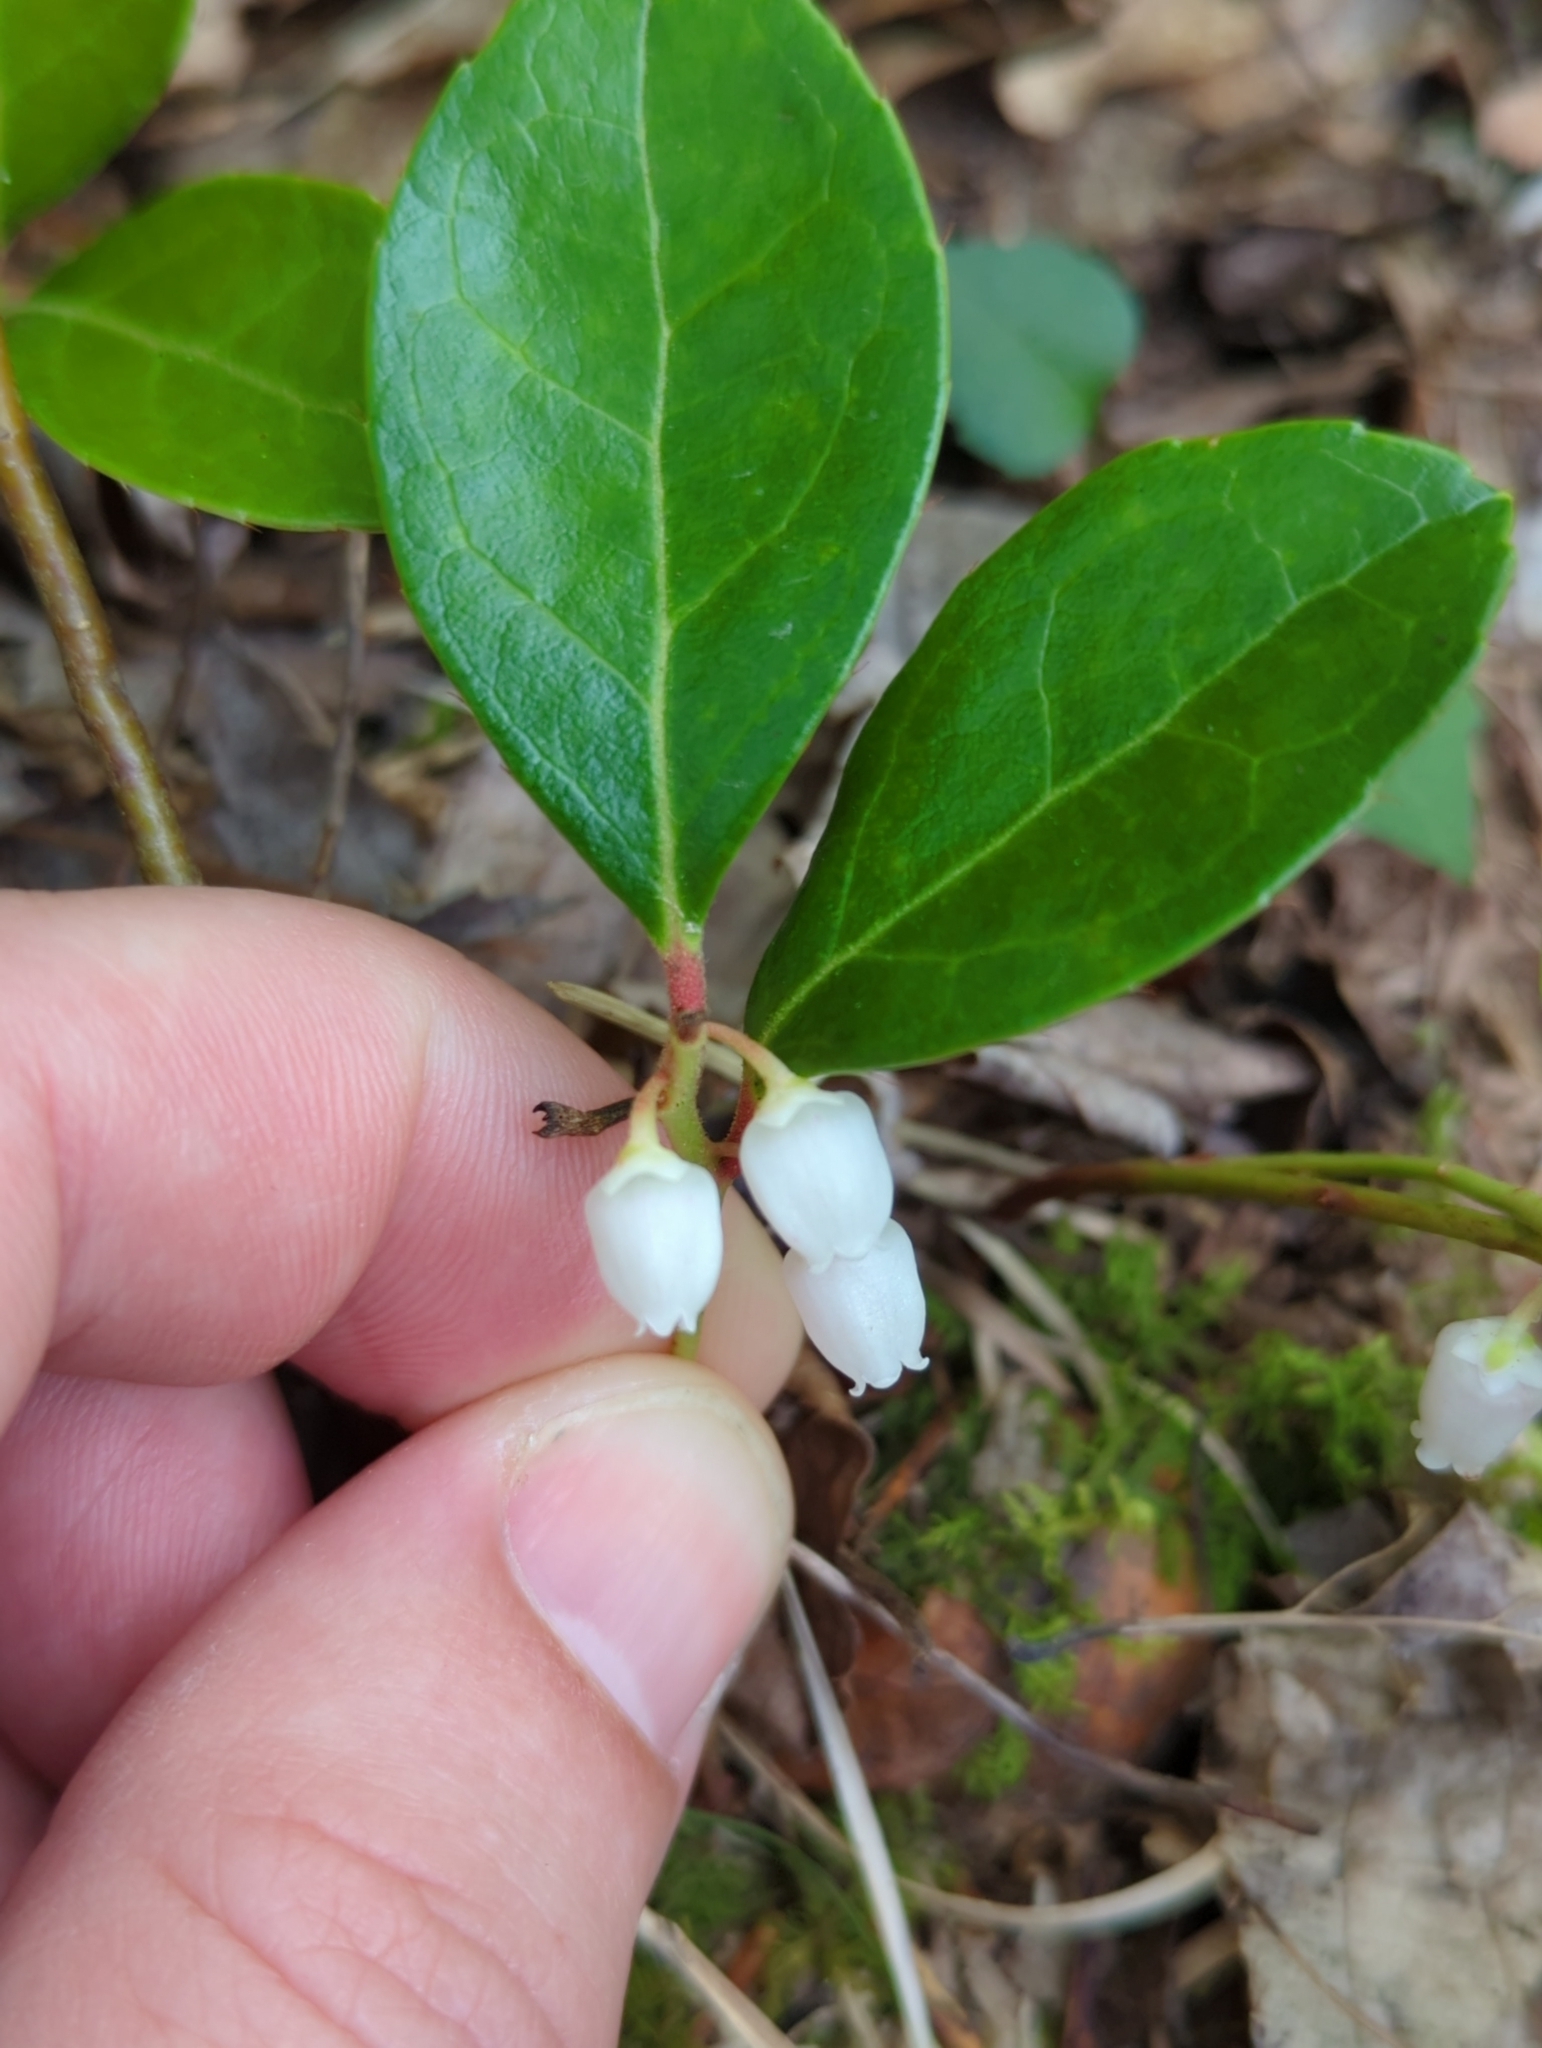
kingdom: Plantae
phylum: Tracheophyta
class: Magnoliopsida
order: Ericales
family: Ericaceae
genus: Gaultheria
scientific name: Gaultheria procumbens
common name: Checkerberry
